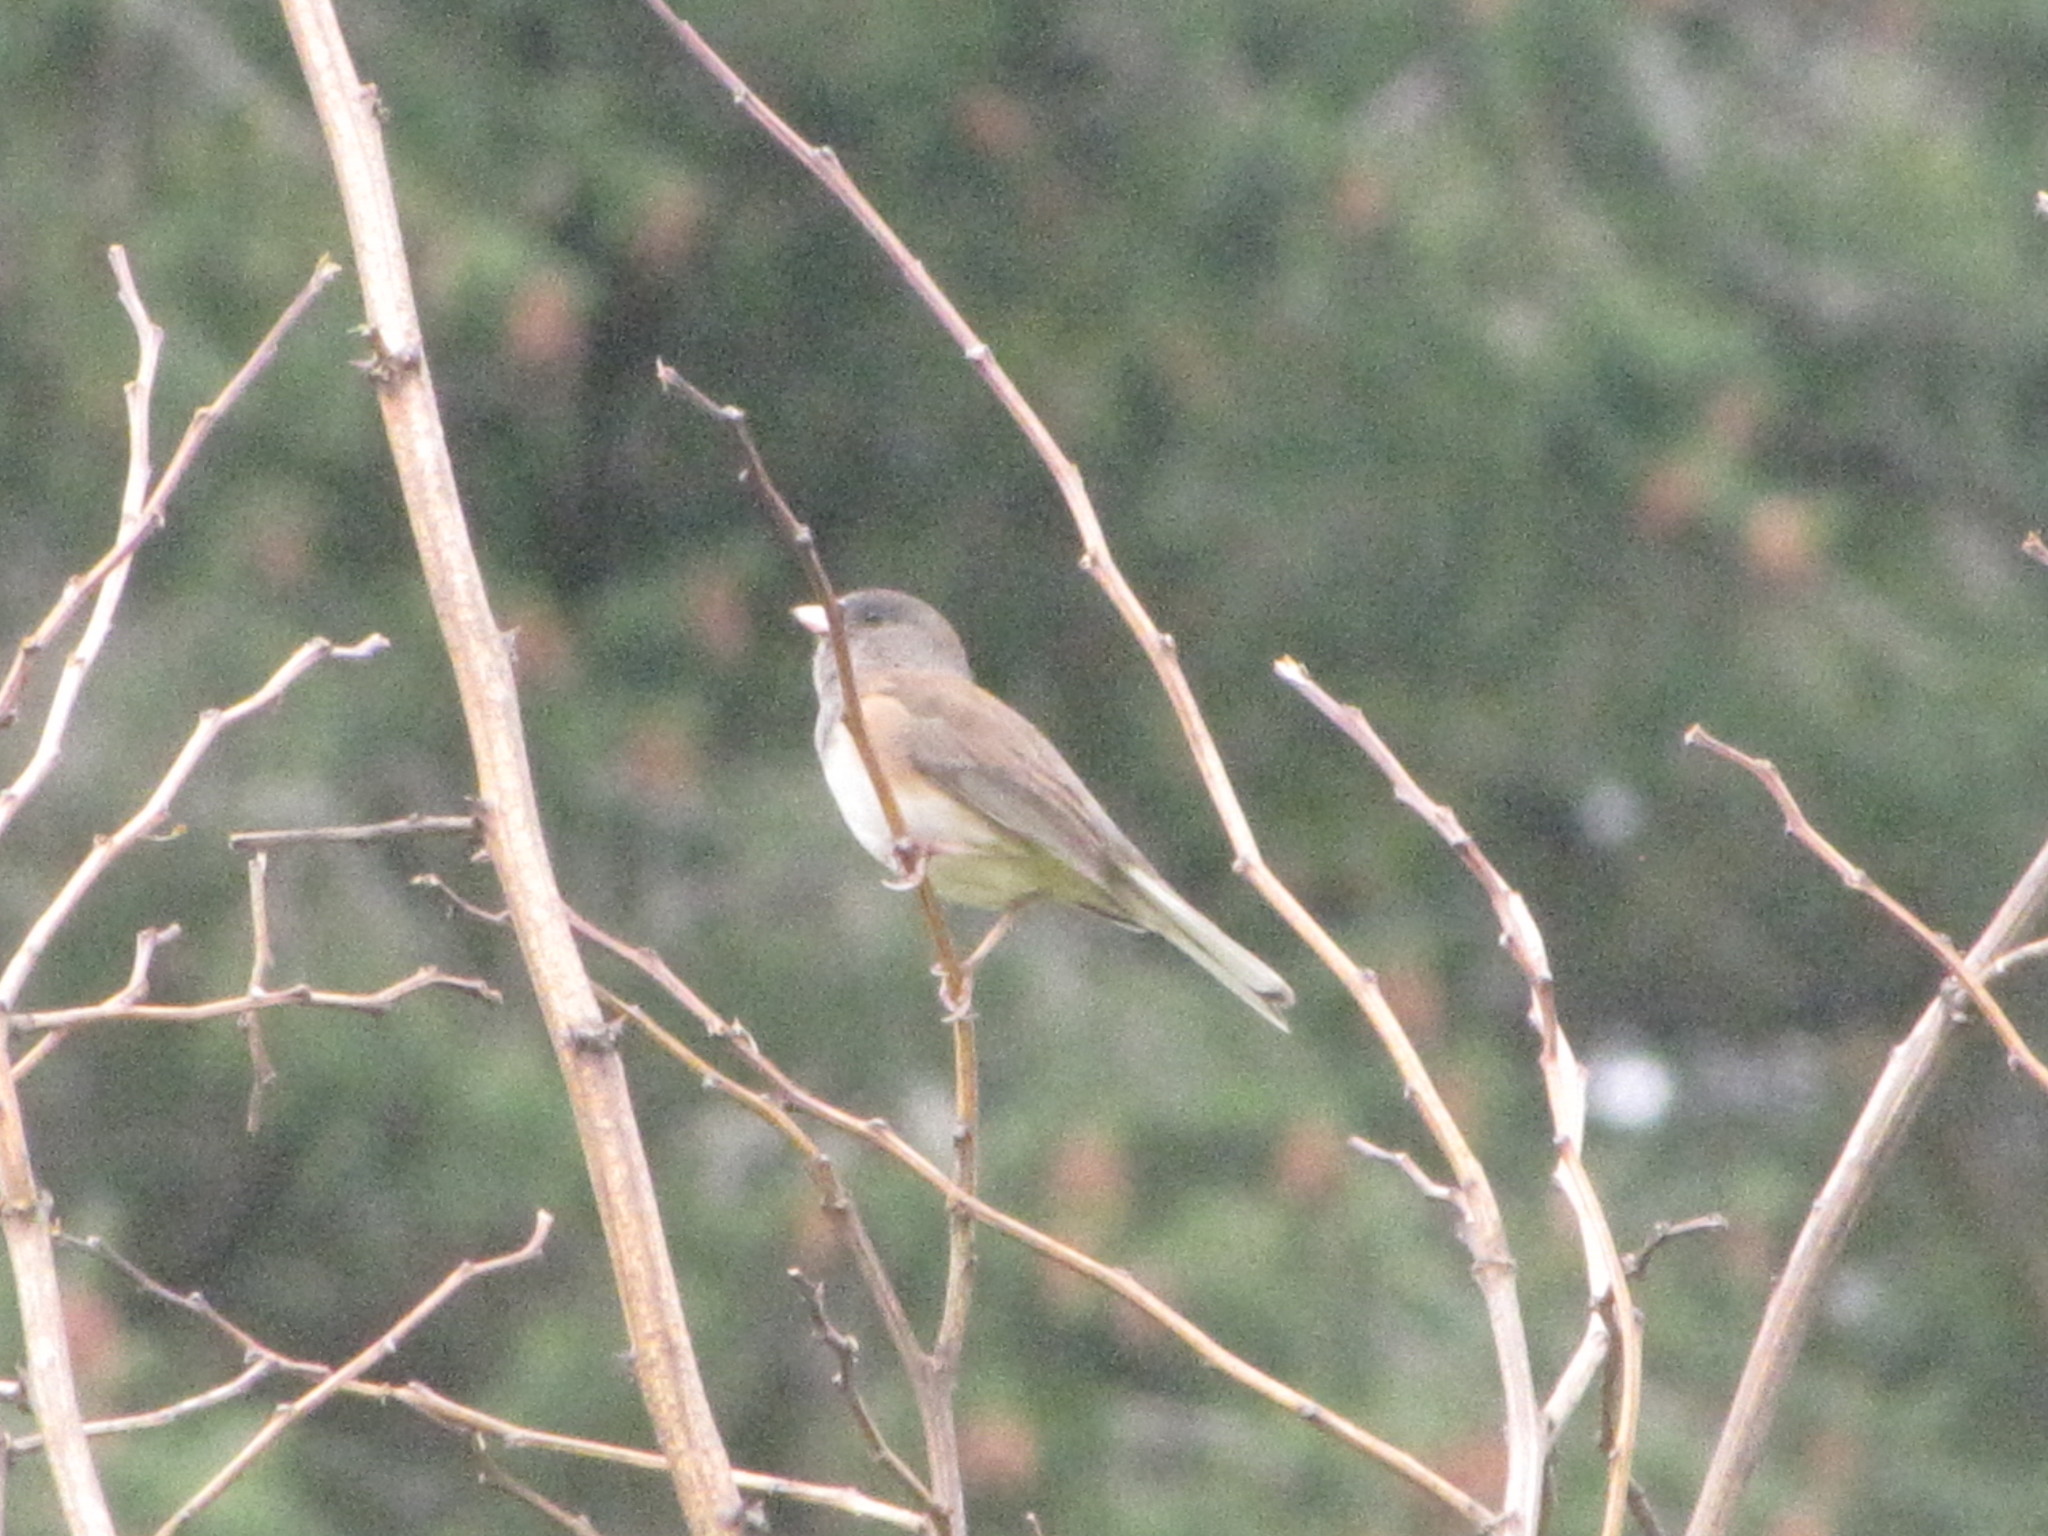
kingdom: Animalia
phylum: Chordata
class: Aves
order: Passeriformes
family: Passerellidae
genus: Junco
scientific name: Junco hyemalis
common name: Dark-eyed junco
